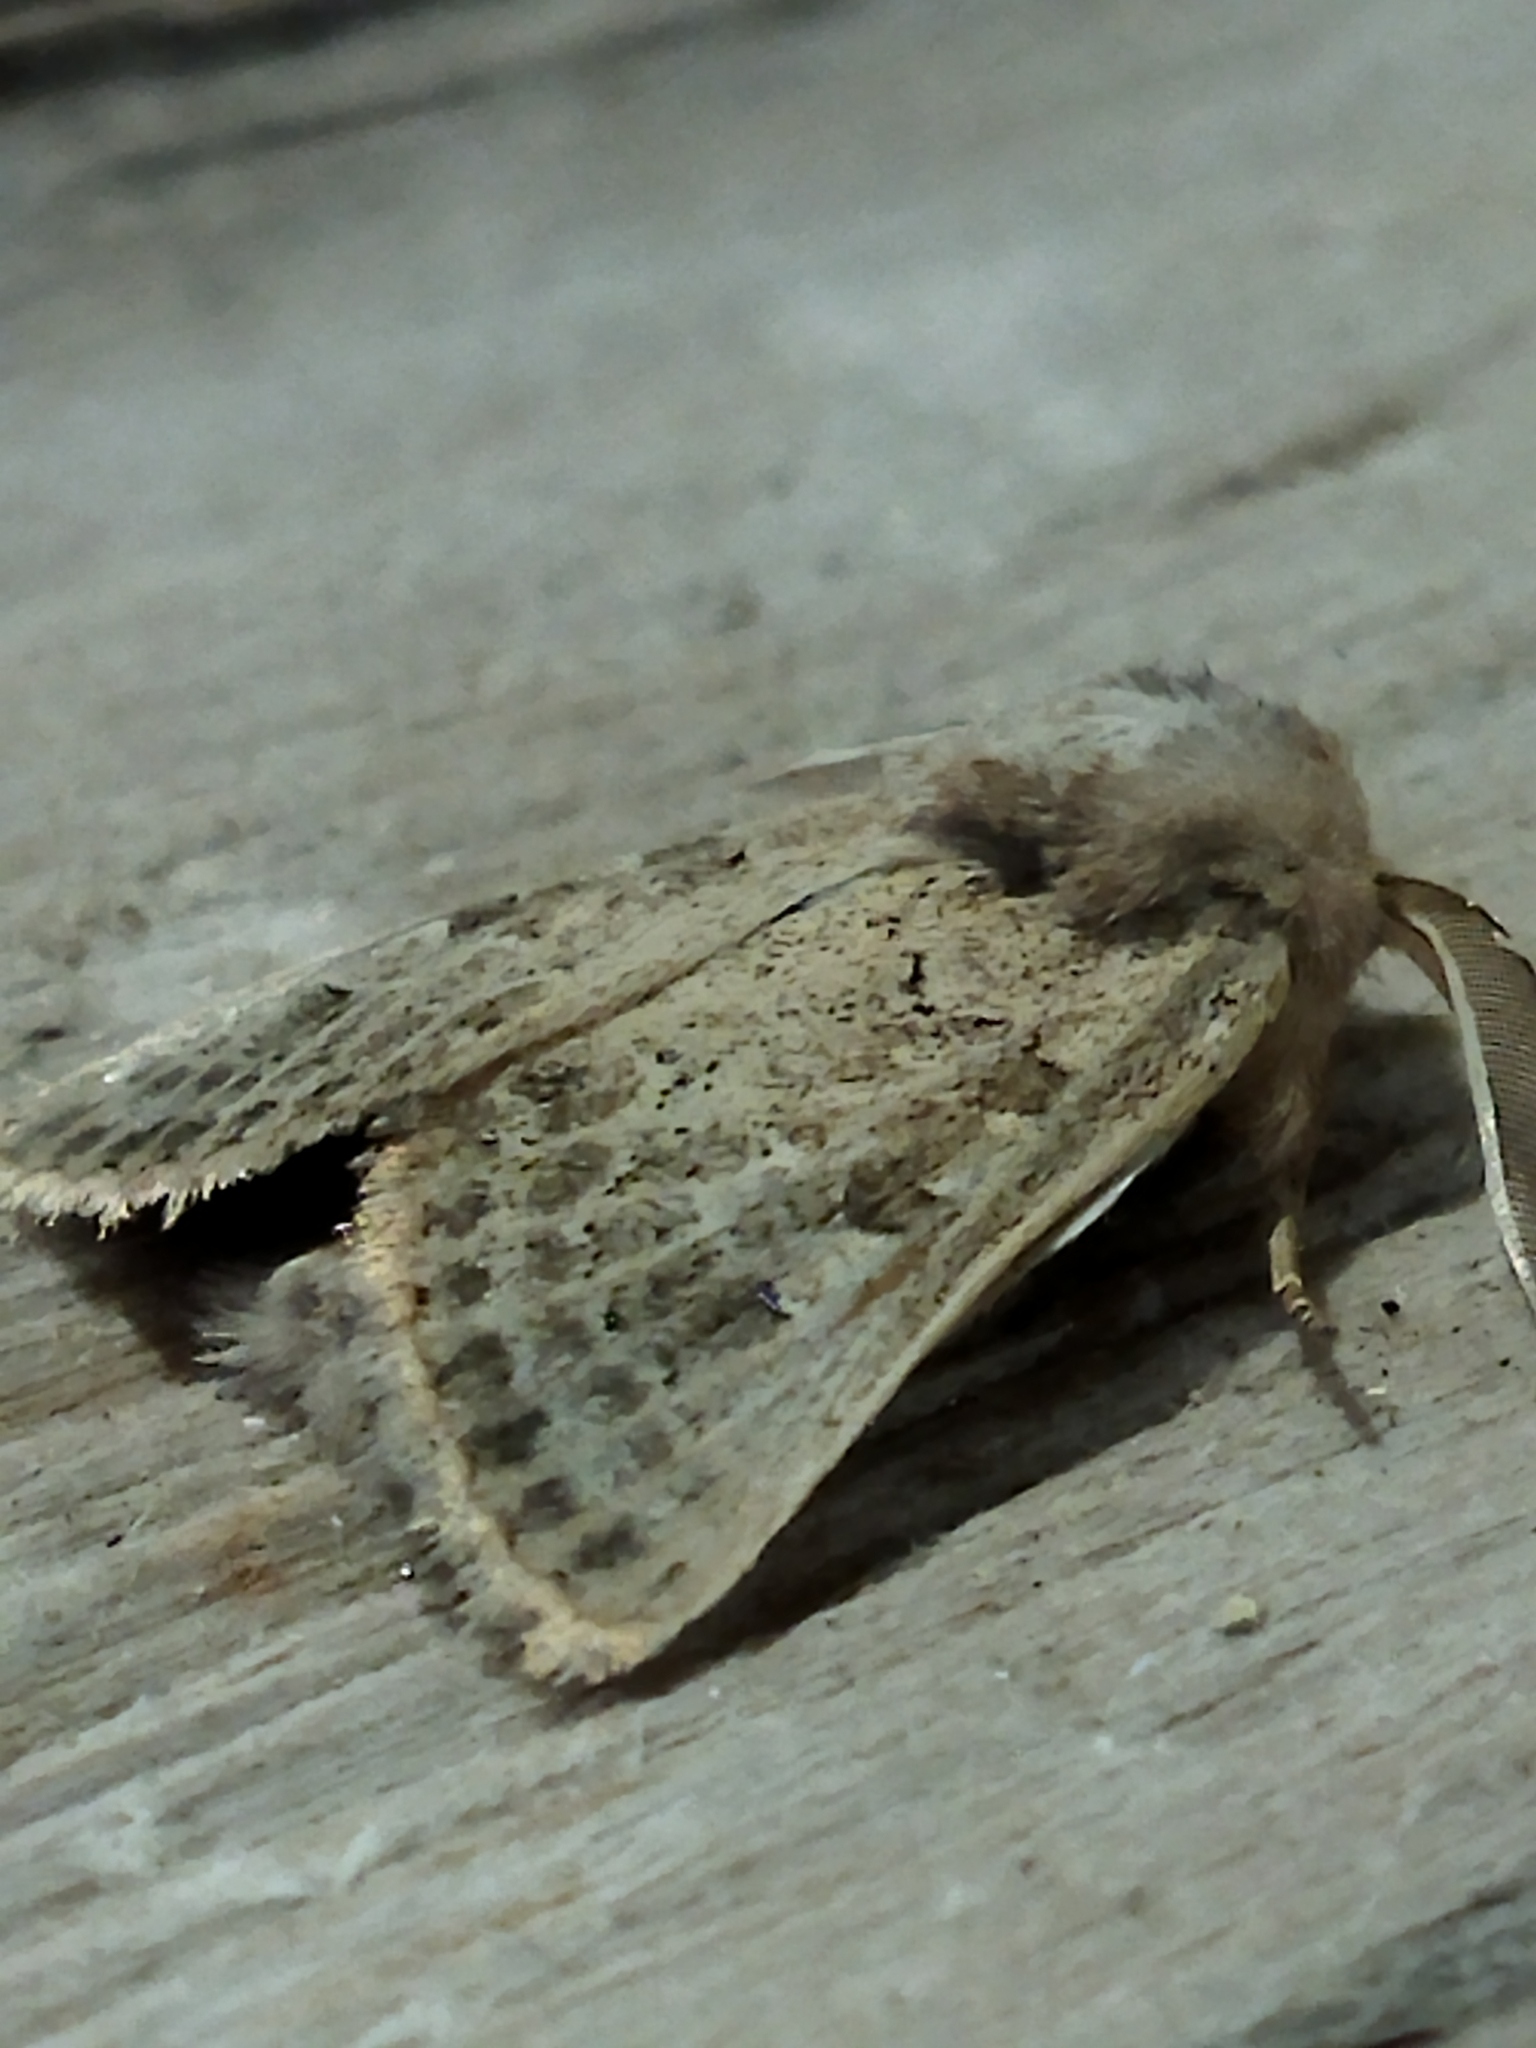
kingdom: Animalia
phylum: Arthropoda
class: Insecta
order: Lepidoptera
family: Noctuidae
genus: Episema
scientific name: Episema lederi
